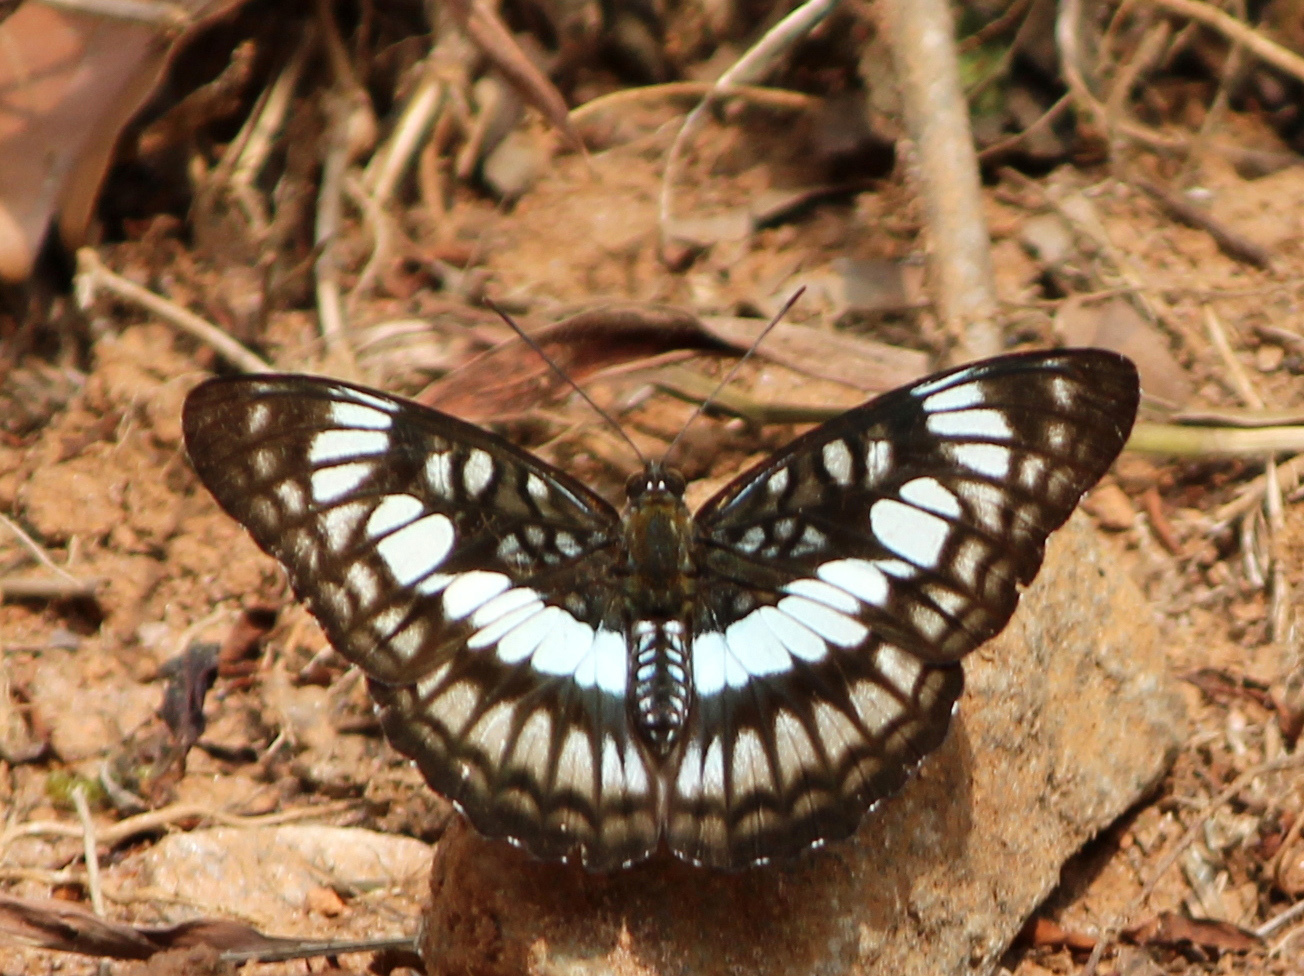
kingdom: Animalia
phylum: Arthropoda
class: Insecta
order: Lepidoptera
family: Nymphalidae
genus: Parathyma
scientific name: Parathyma ranga
